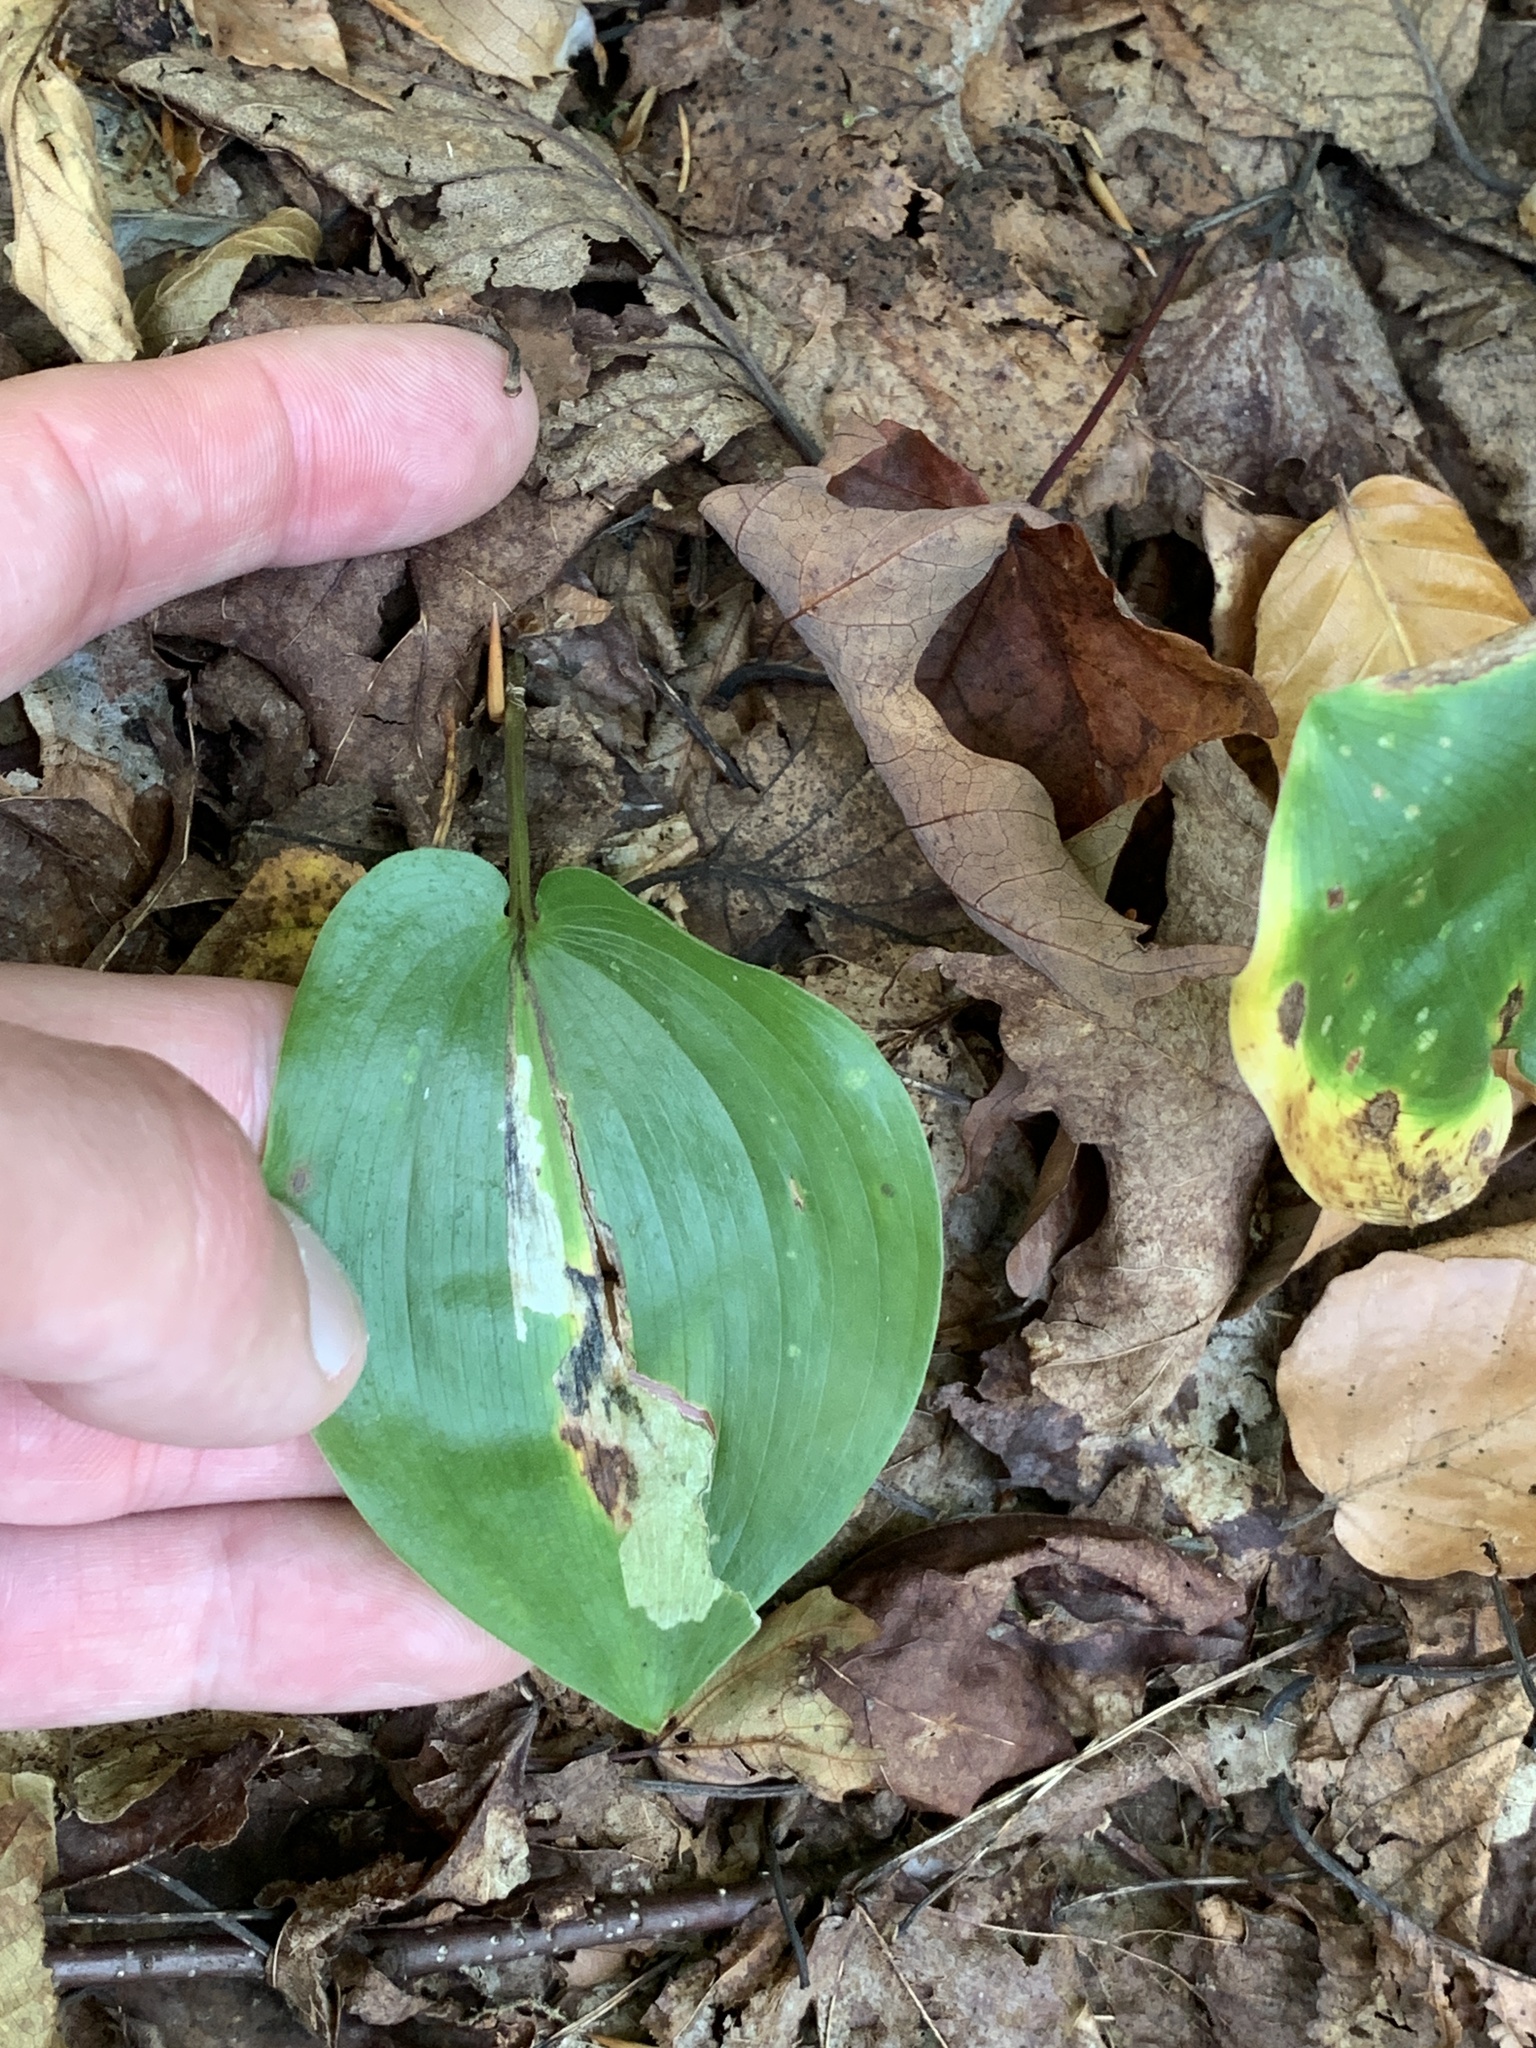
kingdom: Plantae
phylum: Tracheophyta
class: Liliopsida
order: Asparagales
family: Asparagaceae
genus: Maianthemum
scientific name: Maianthemum canadense
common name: False lily-of-the-valley
